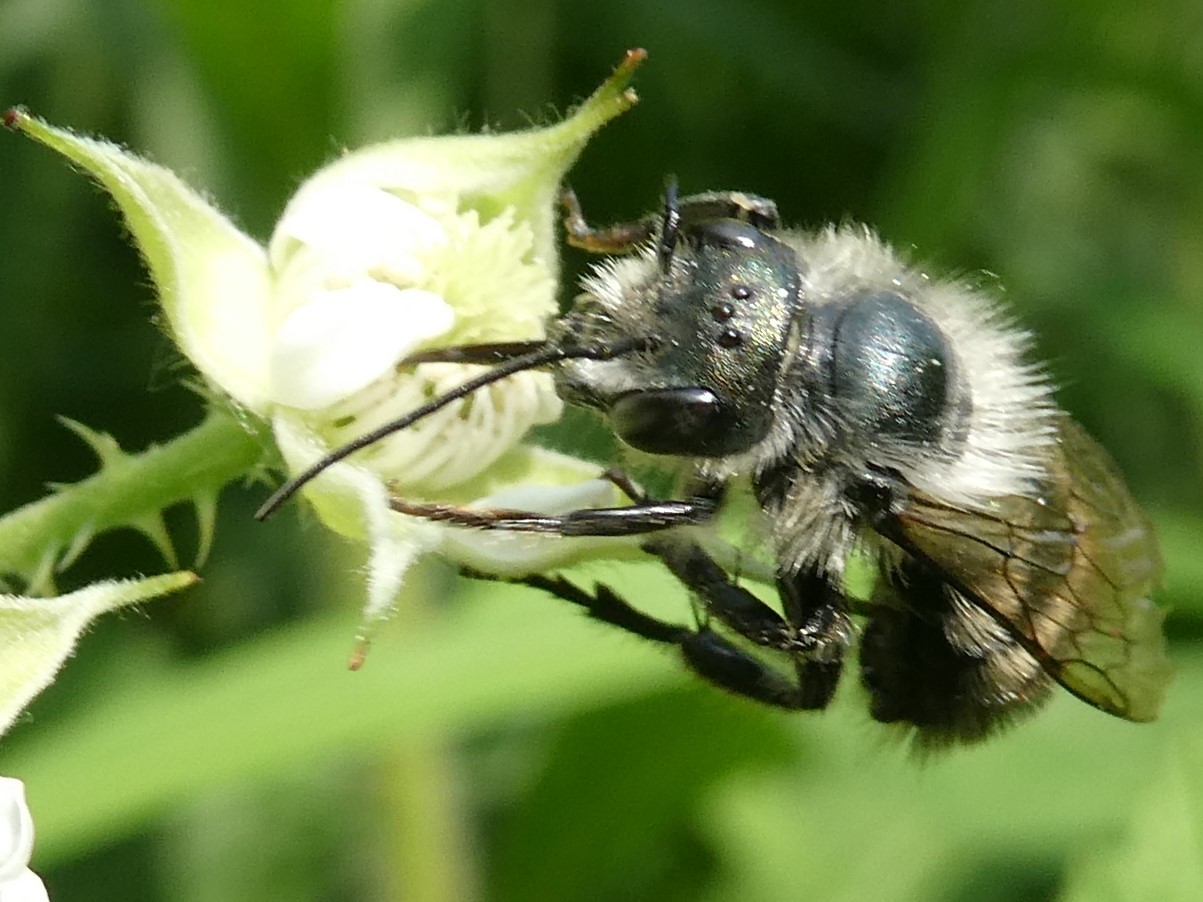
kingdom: Animalia
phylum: Arthropoda
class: Insecta
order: Hymenoptera
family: Megachilidae
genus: Osmia
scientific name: Osmia bucephala
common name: Bufflehead mason bee
